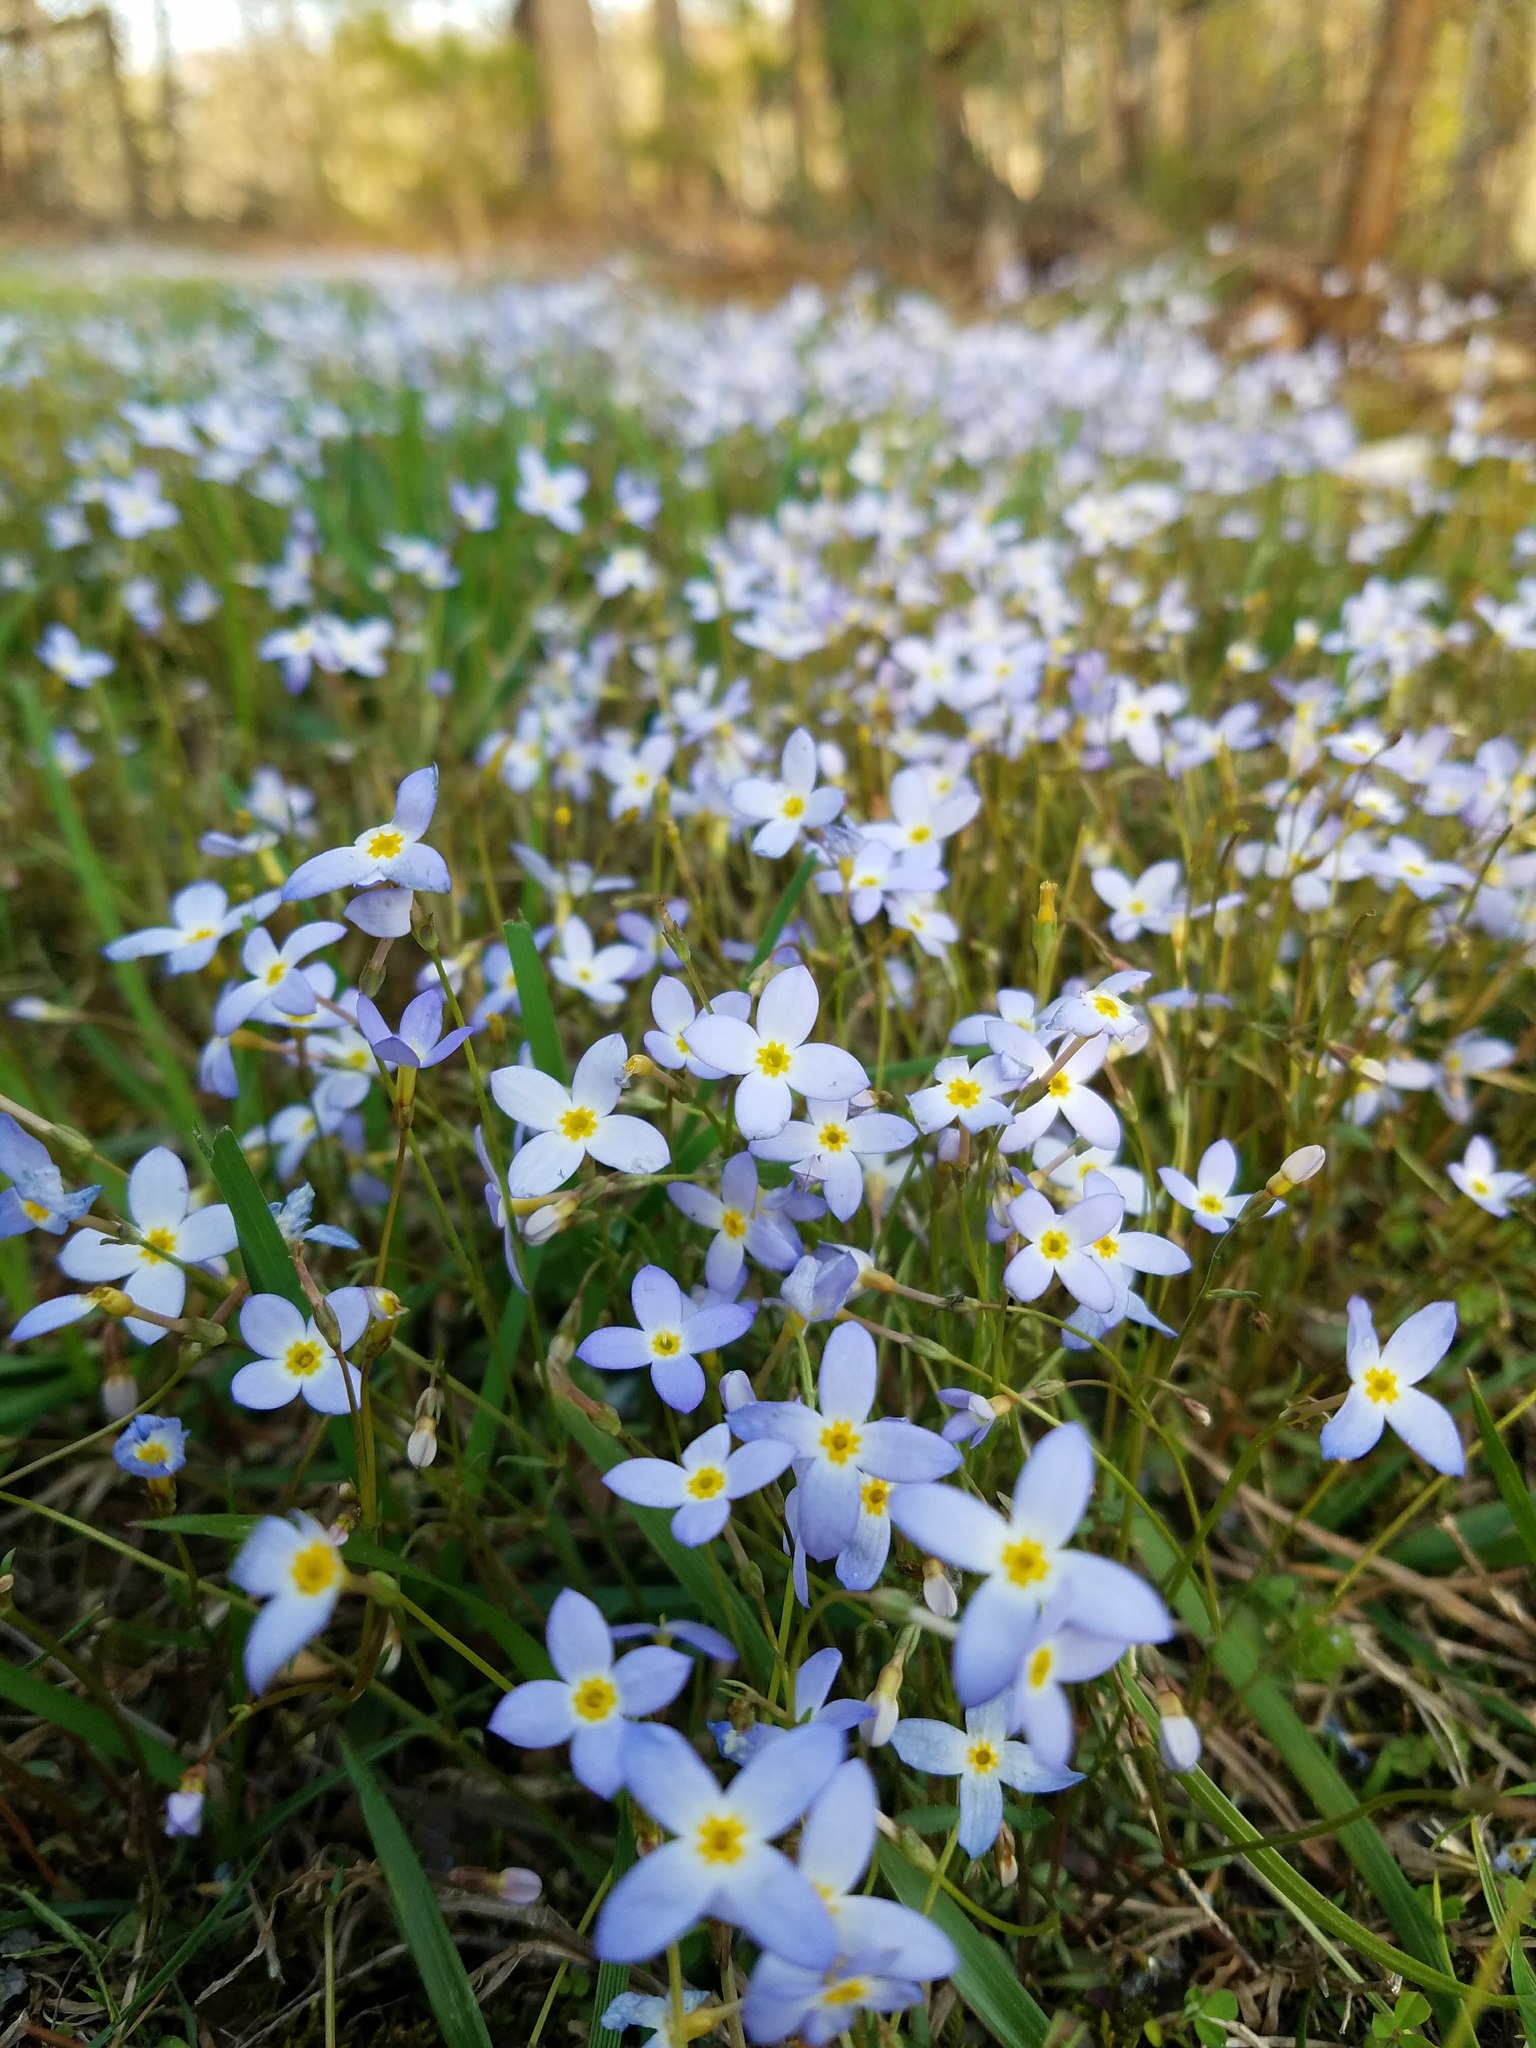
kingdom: Plantae
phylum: Tracheophyta
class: Magnoliopsida
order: Gentianales
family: Rubiaceae
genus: Houstonia
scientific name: Houstonia caerulea
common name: Bluets
